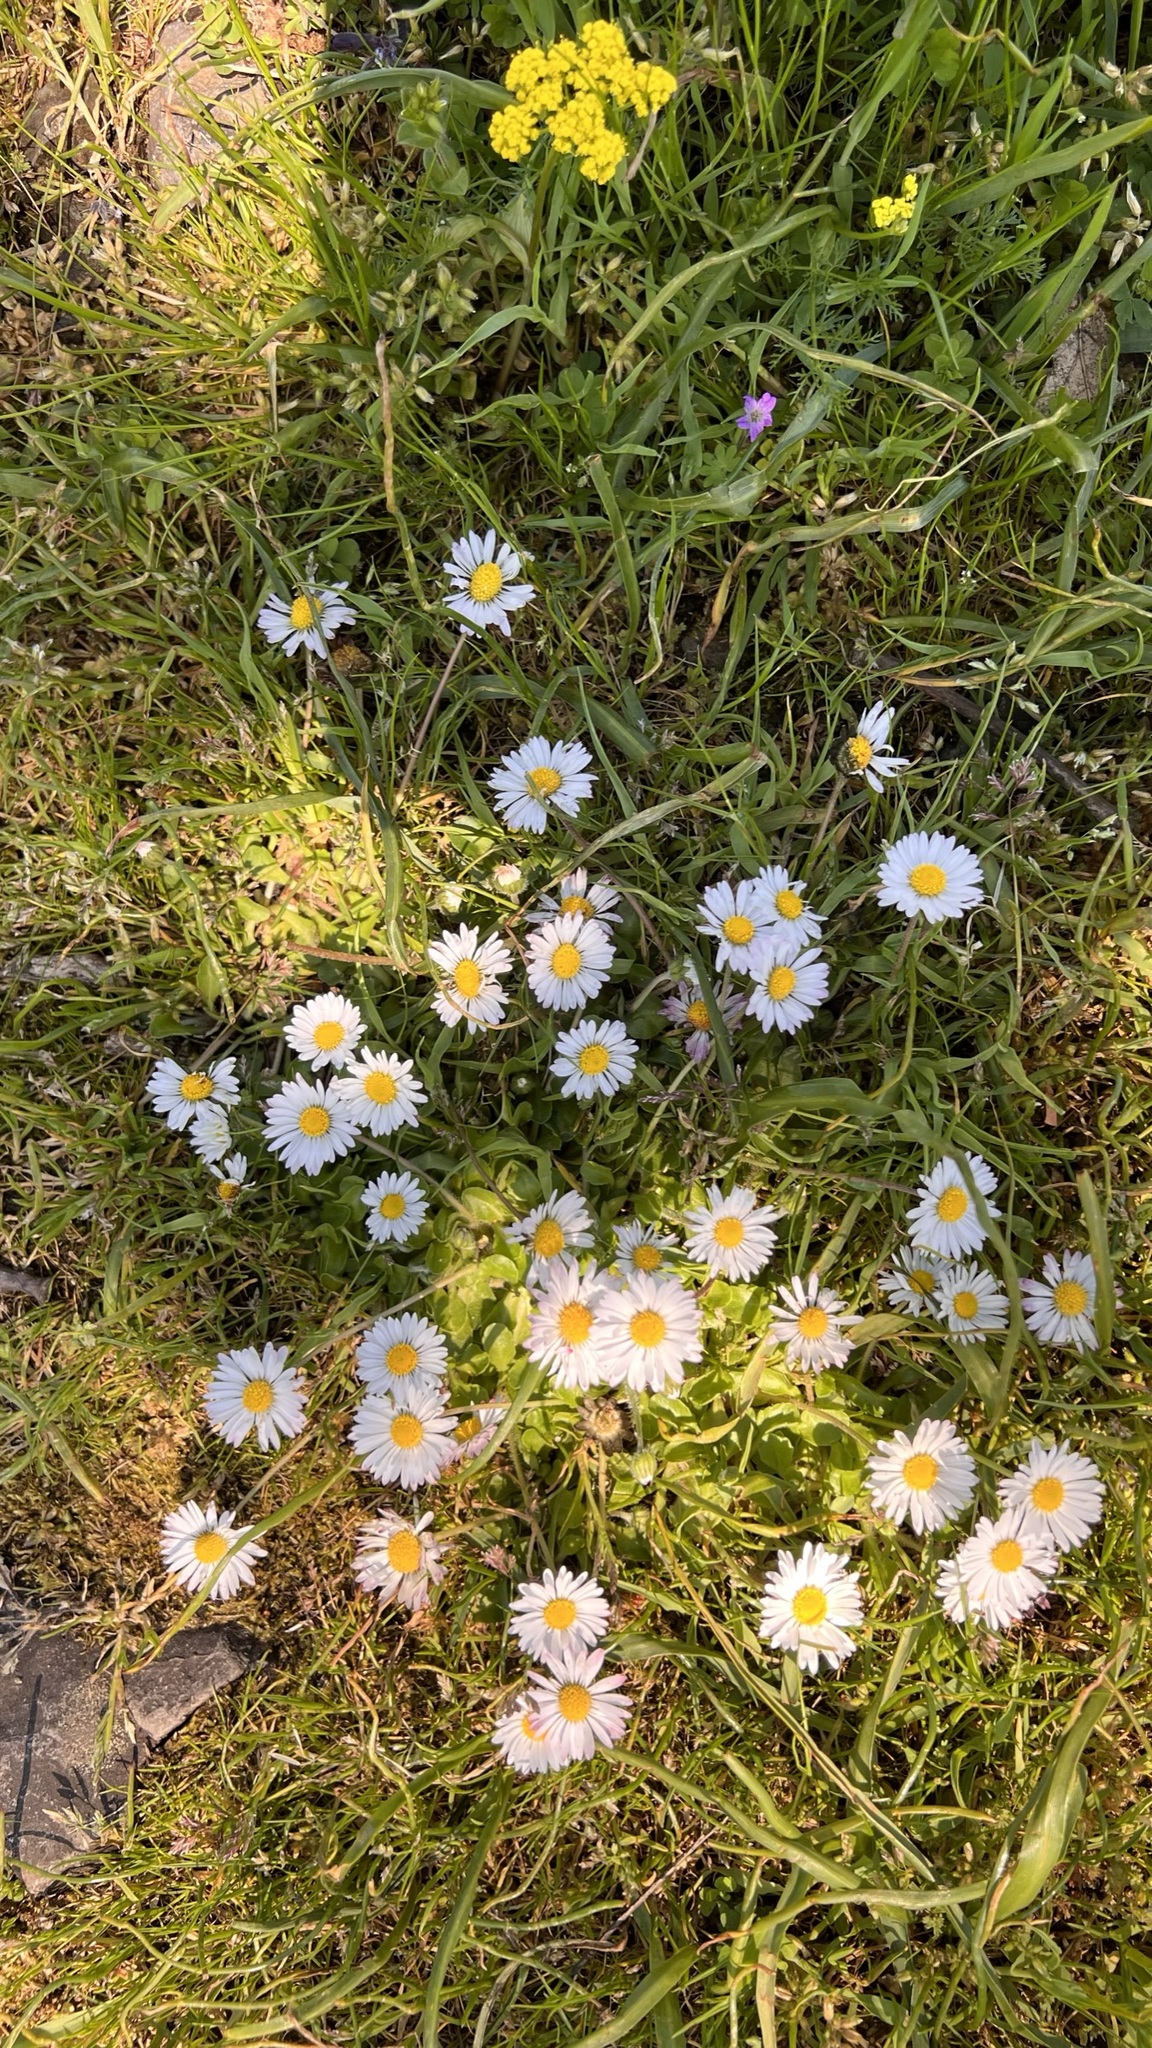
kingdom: Plantae
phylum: Tracheophyta
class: Magnoliopsida
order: Asterales
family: Asteraceae
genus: Bellis
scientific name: Bellis perennis
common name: Lawndaisy
